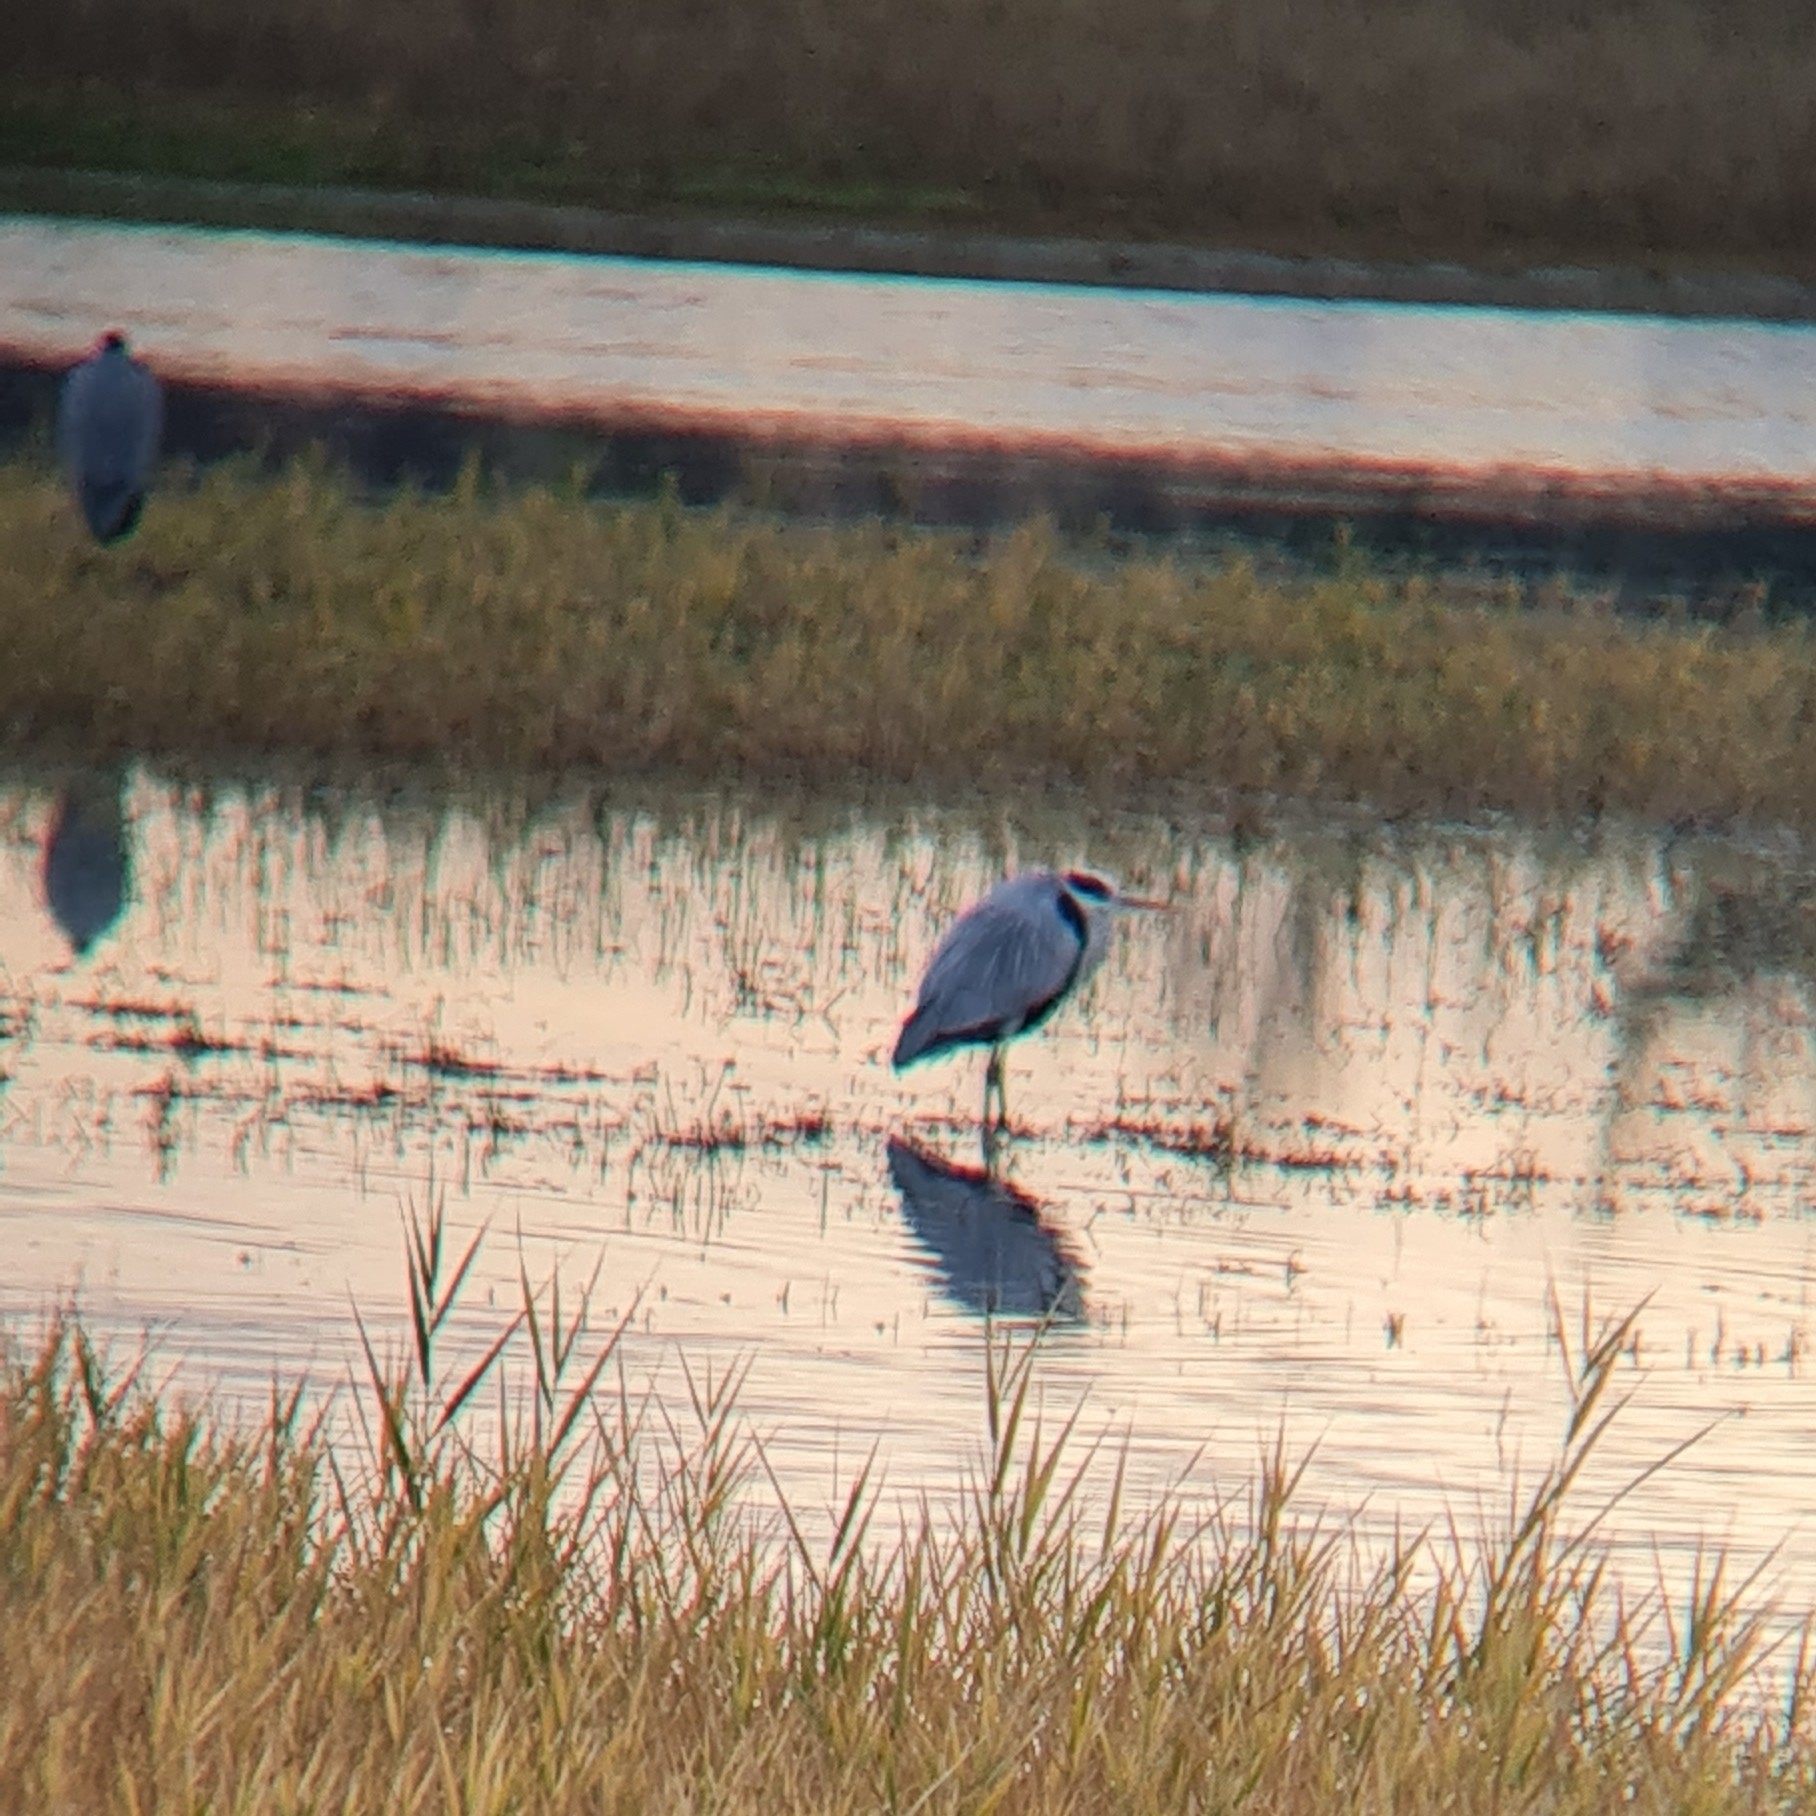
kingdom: Animalia
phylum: Chordata
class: Aves
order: Pelecaniformes
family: Ardeidae
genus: Ardea
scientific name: Ardea cinerea
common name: Grey heron
